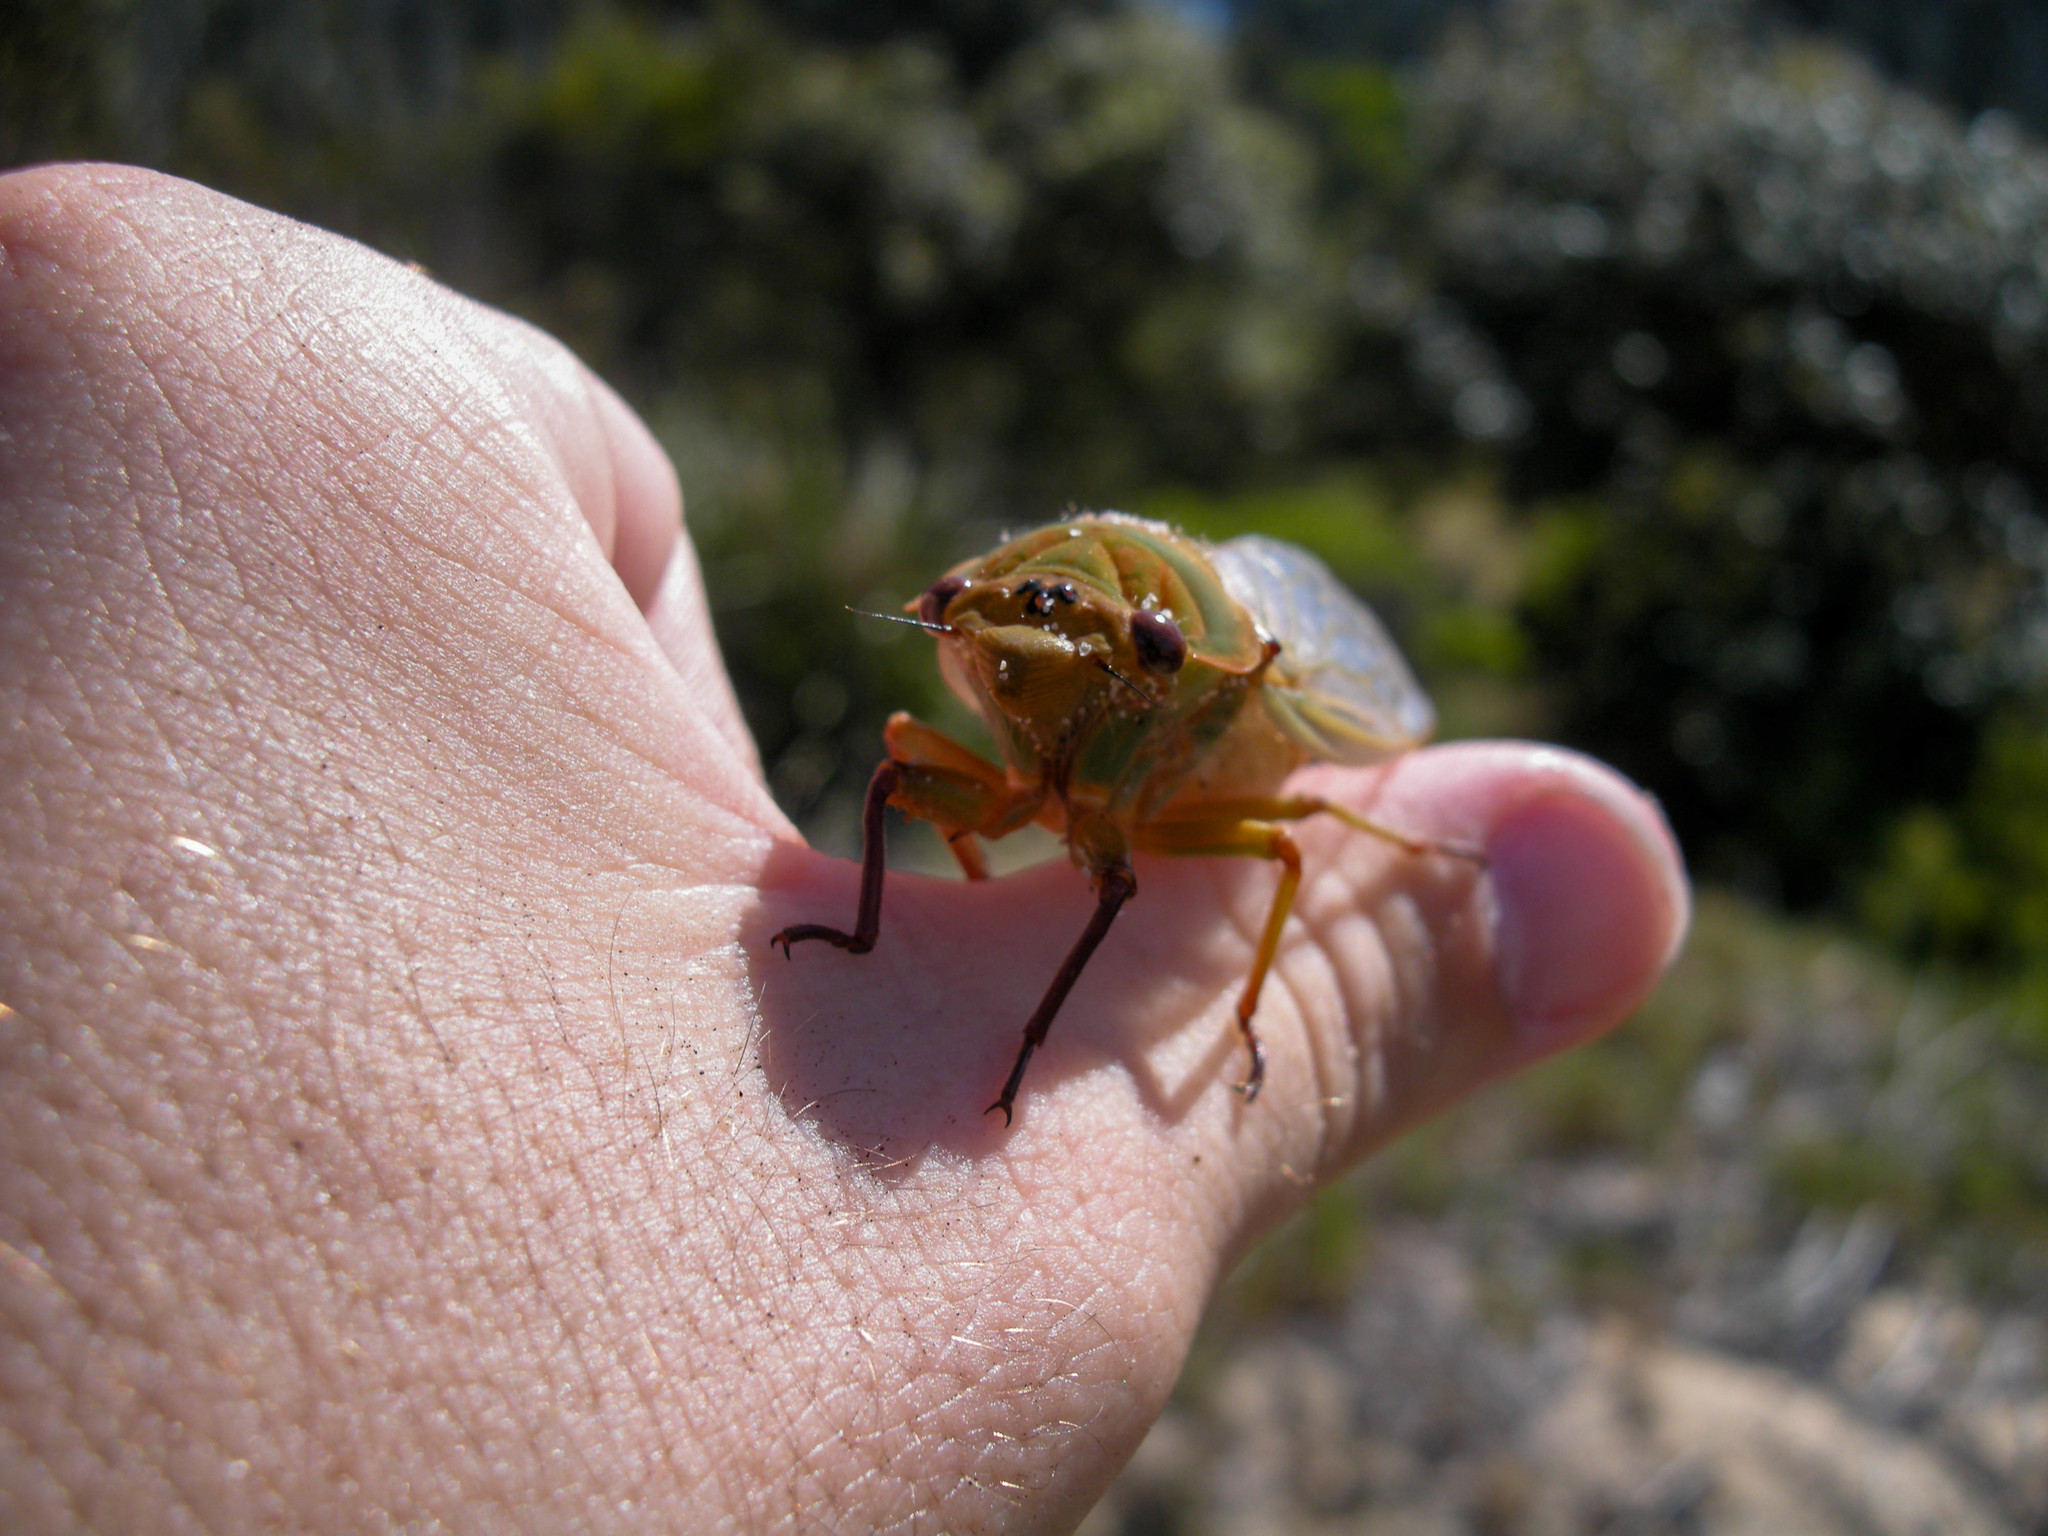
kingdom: Animalia
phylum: Arthropoda
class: Insecta
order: Hemiptera
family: Cicadidae
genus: Cyclochila
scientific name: Cyclochila australasiae
